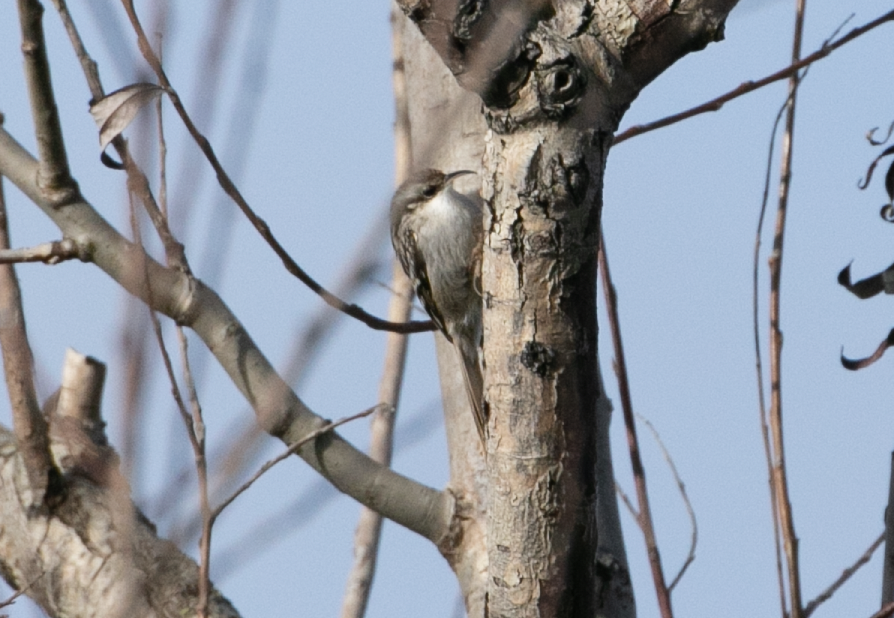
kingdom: Animalia
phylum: Chordata
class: Aves
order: Passeriformes
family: Certhiidae
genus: Certhia
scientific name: Certhia brachydactyla
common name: Short-toed treecreeper
